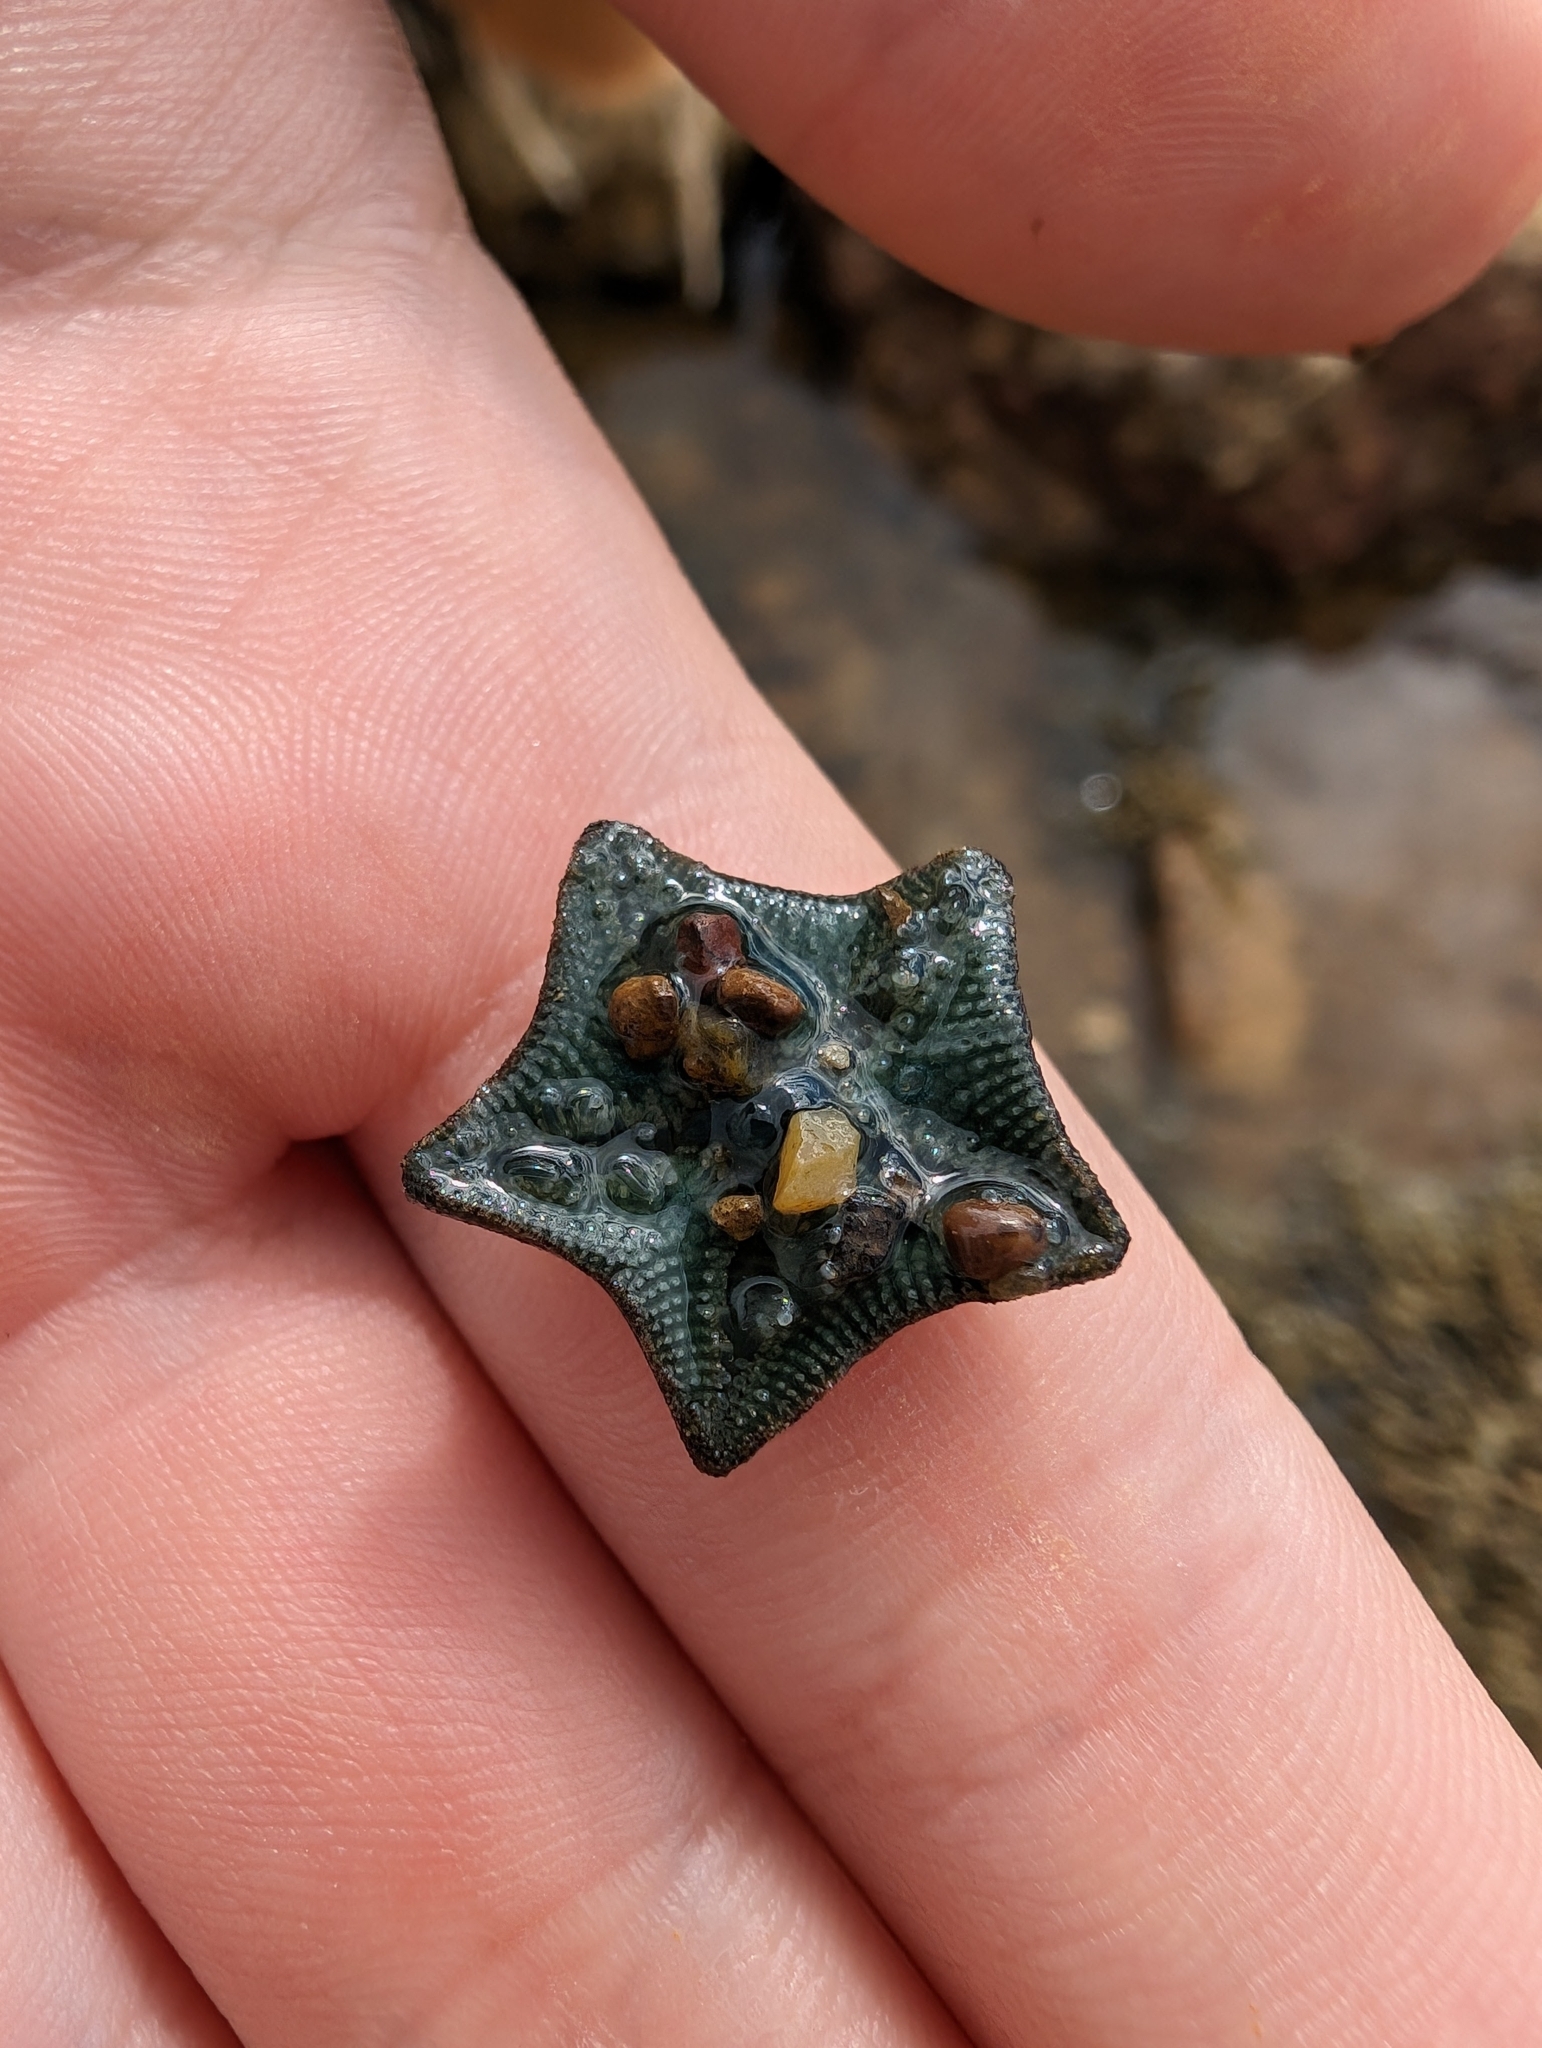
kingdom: Animalia
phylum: Echinodermata
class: Asteroidea
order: Valvatida
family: Asterinidae
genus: Parvulastra
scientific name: Parvulastra exigua
